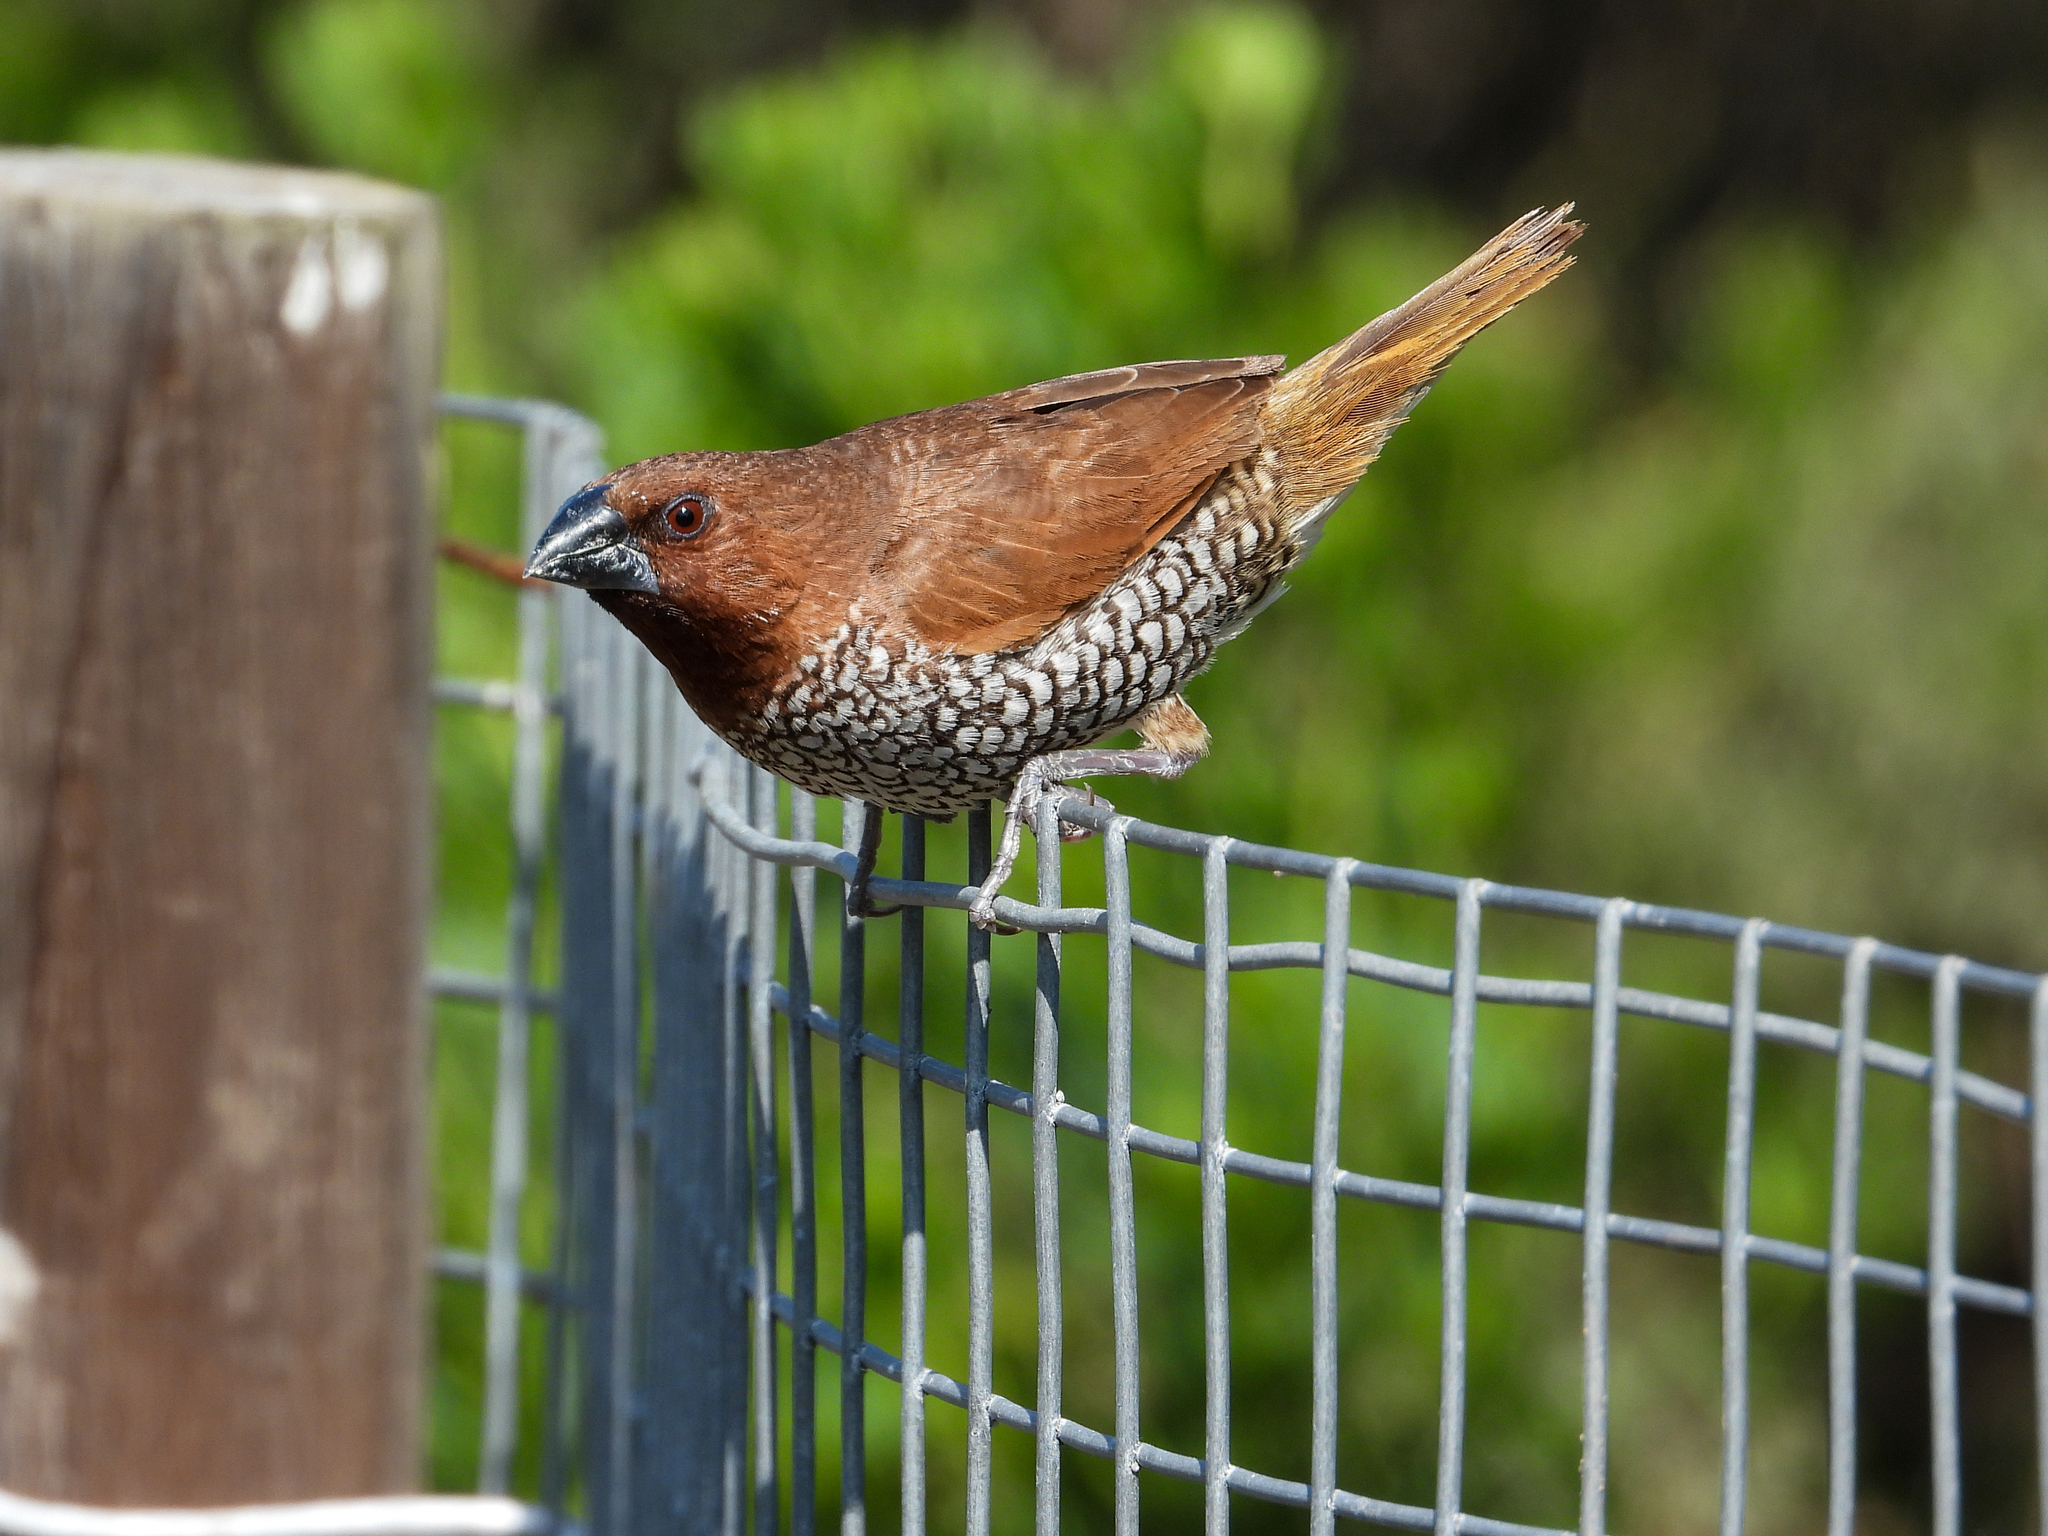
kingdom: Animalia
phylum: Chordata
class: Aves
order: Passeriformes
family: Estrildidae
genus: Lonchura
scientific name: Lonchura punctulata
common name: Scaly-breasted munia
